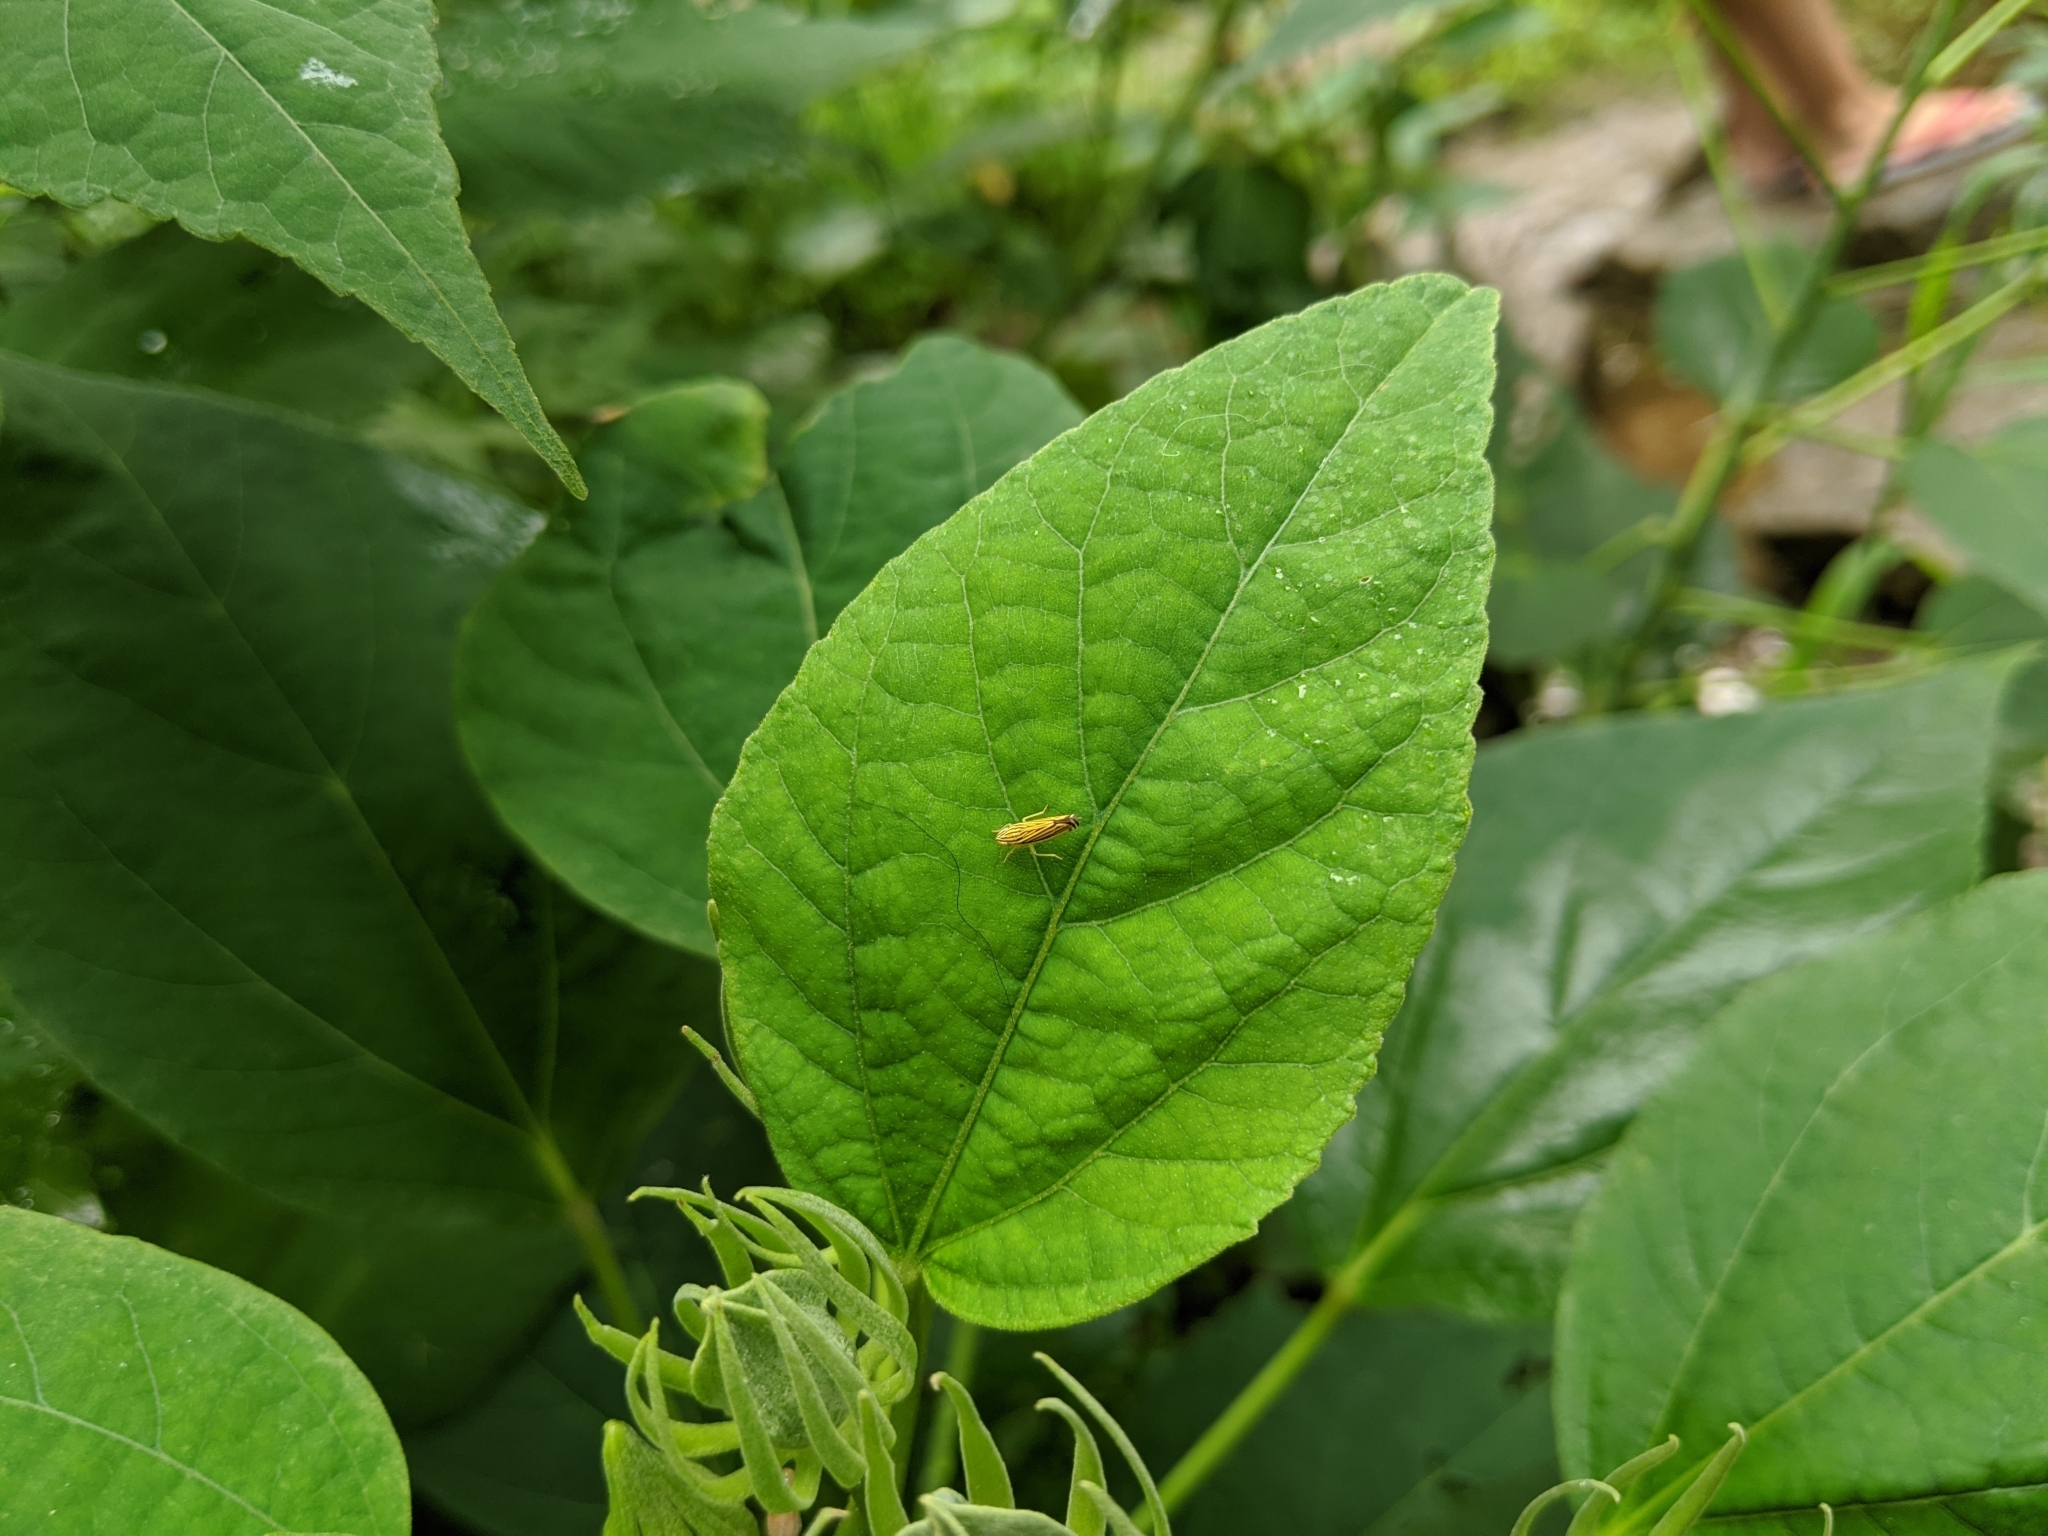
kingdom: Animalia
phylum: Arthropoda
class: Insecta
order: Hemiptera
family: Cicadellidae
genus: Sibovia
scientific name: Sibovia occatoria
